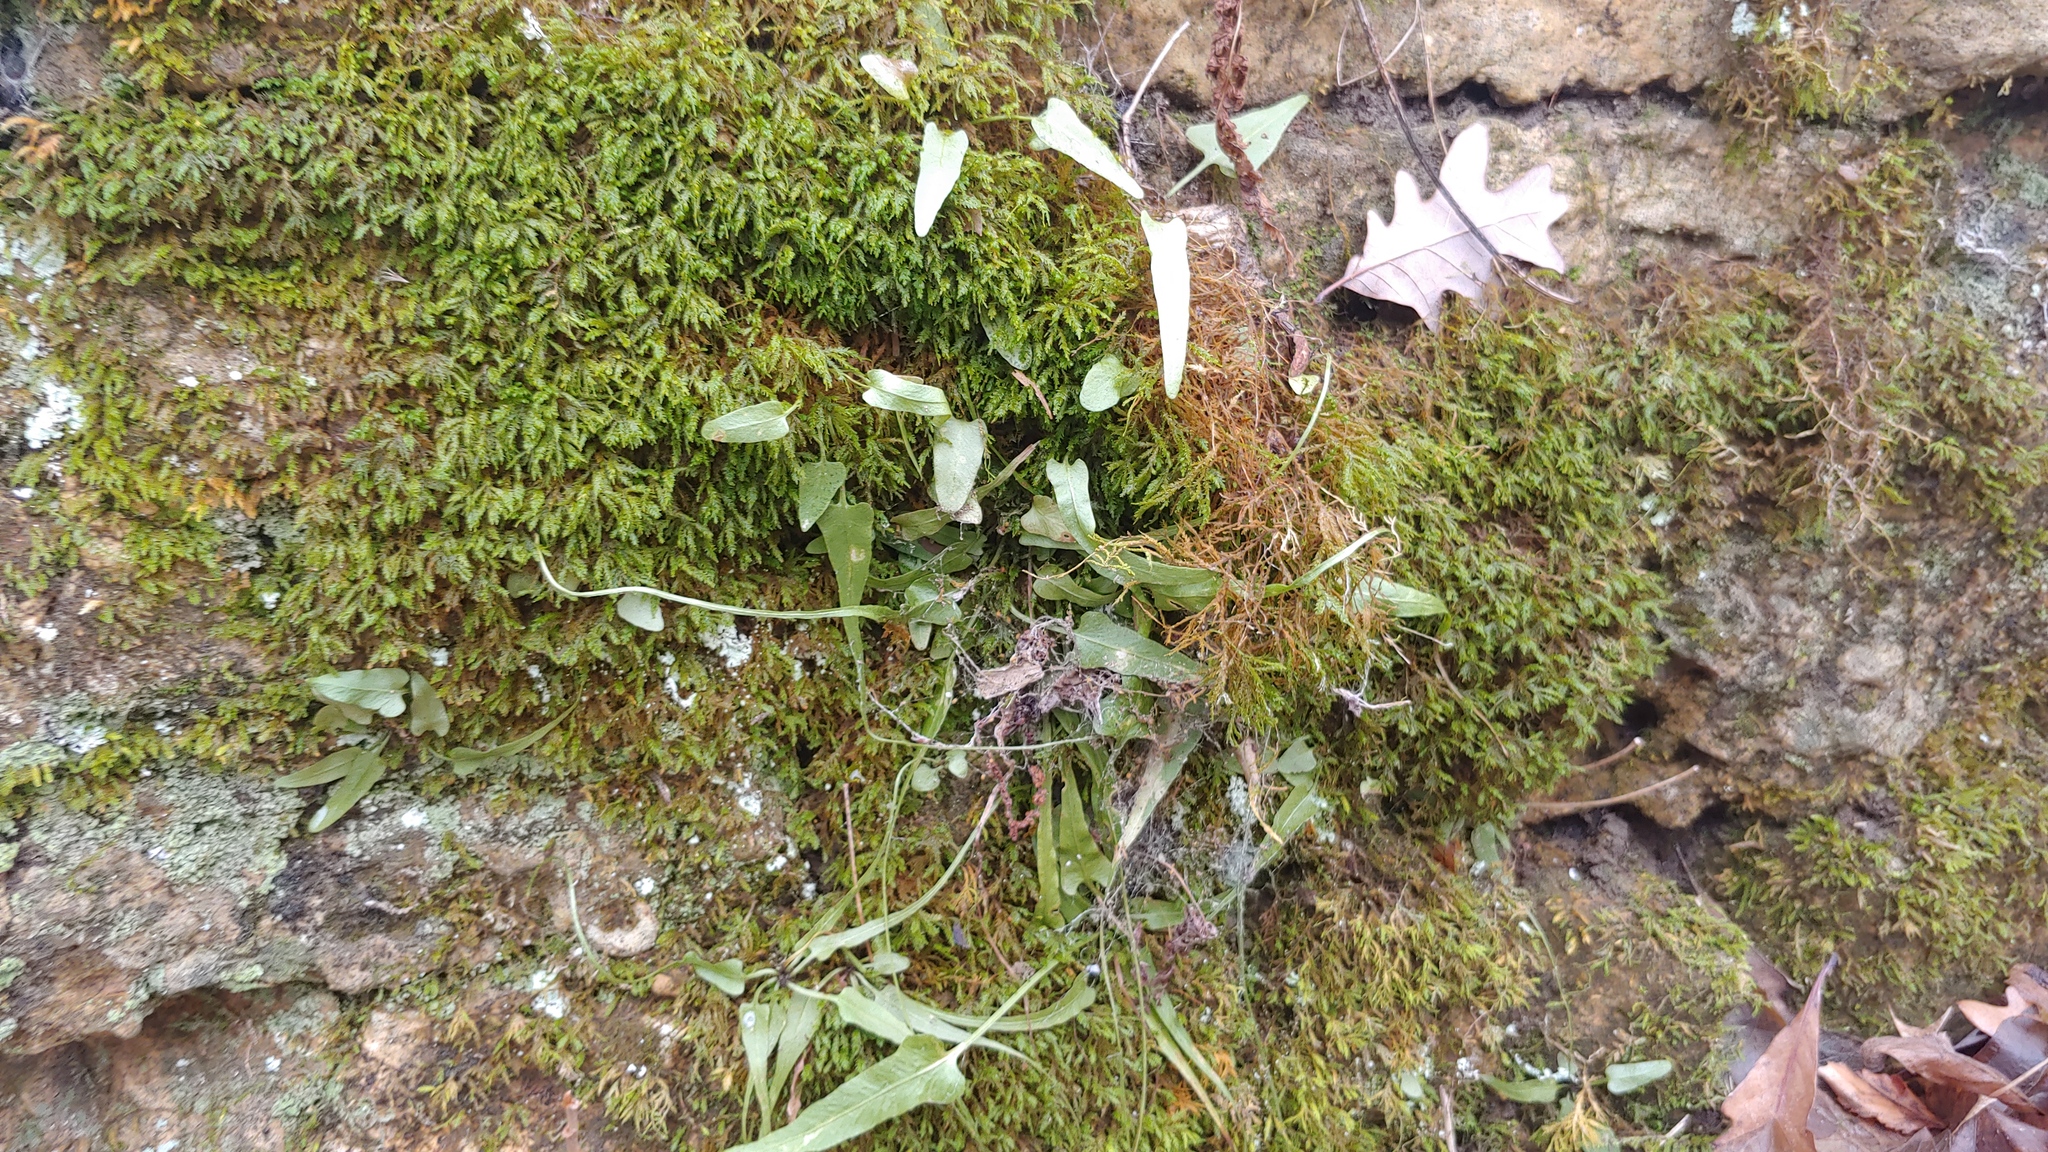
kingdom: Plantae
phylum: Tracheophyta
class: Polypodiopsida
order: Polypodiales
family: Aspleniaceae
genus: Asplenium
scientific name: Asplenium rhizophyllum
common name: Walking fern
